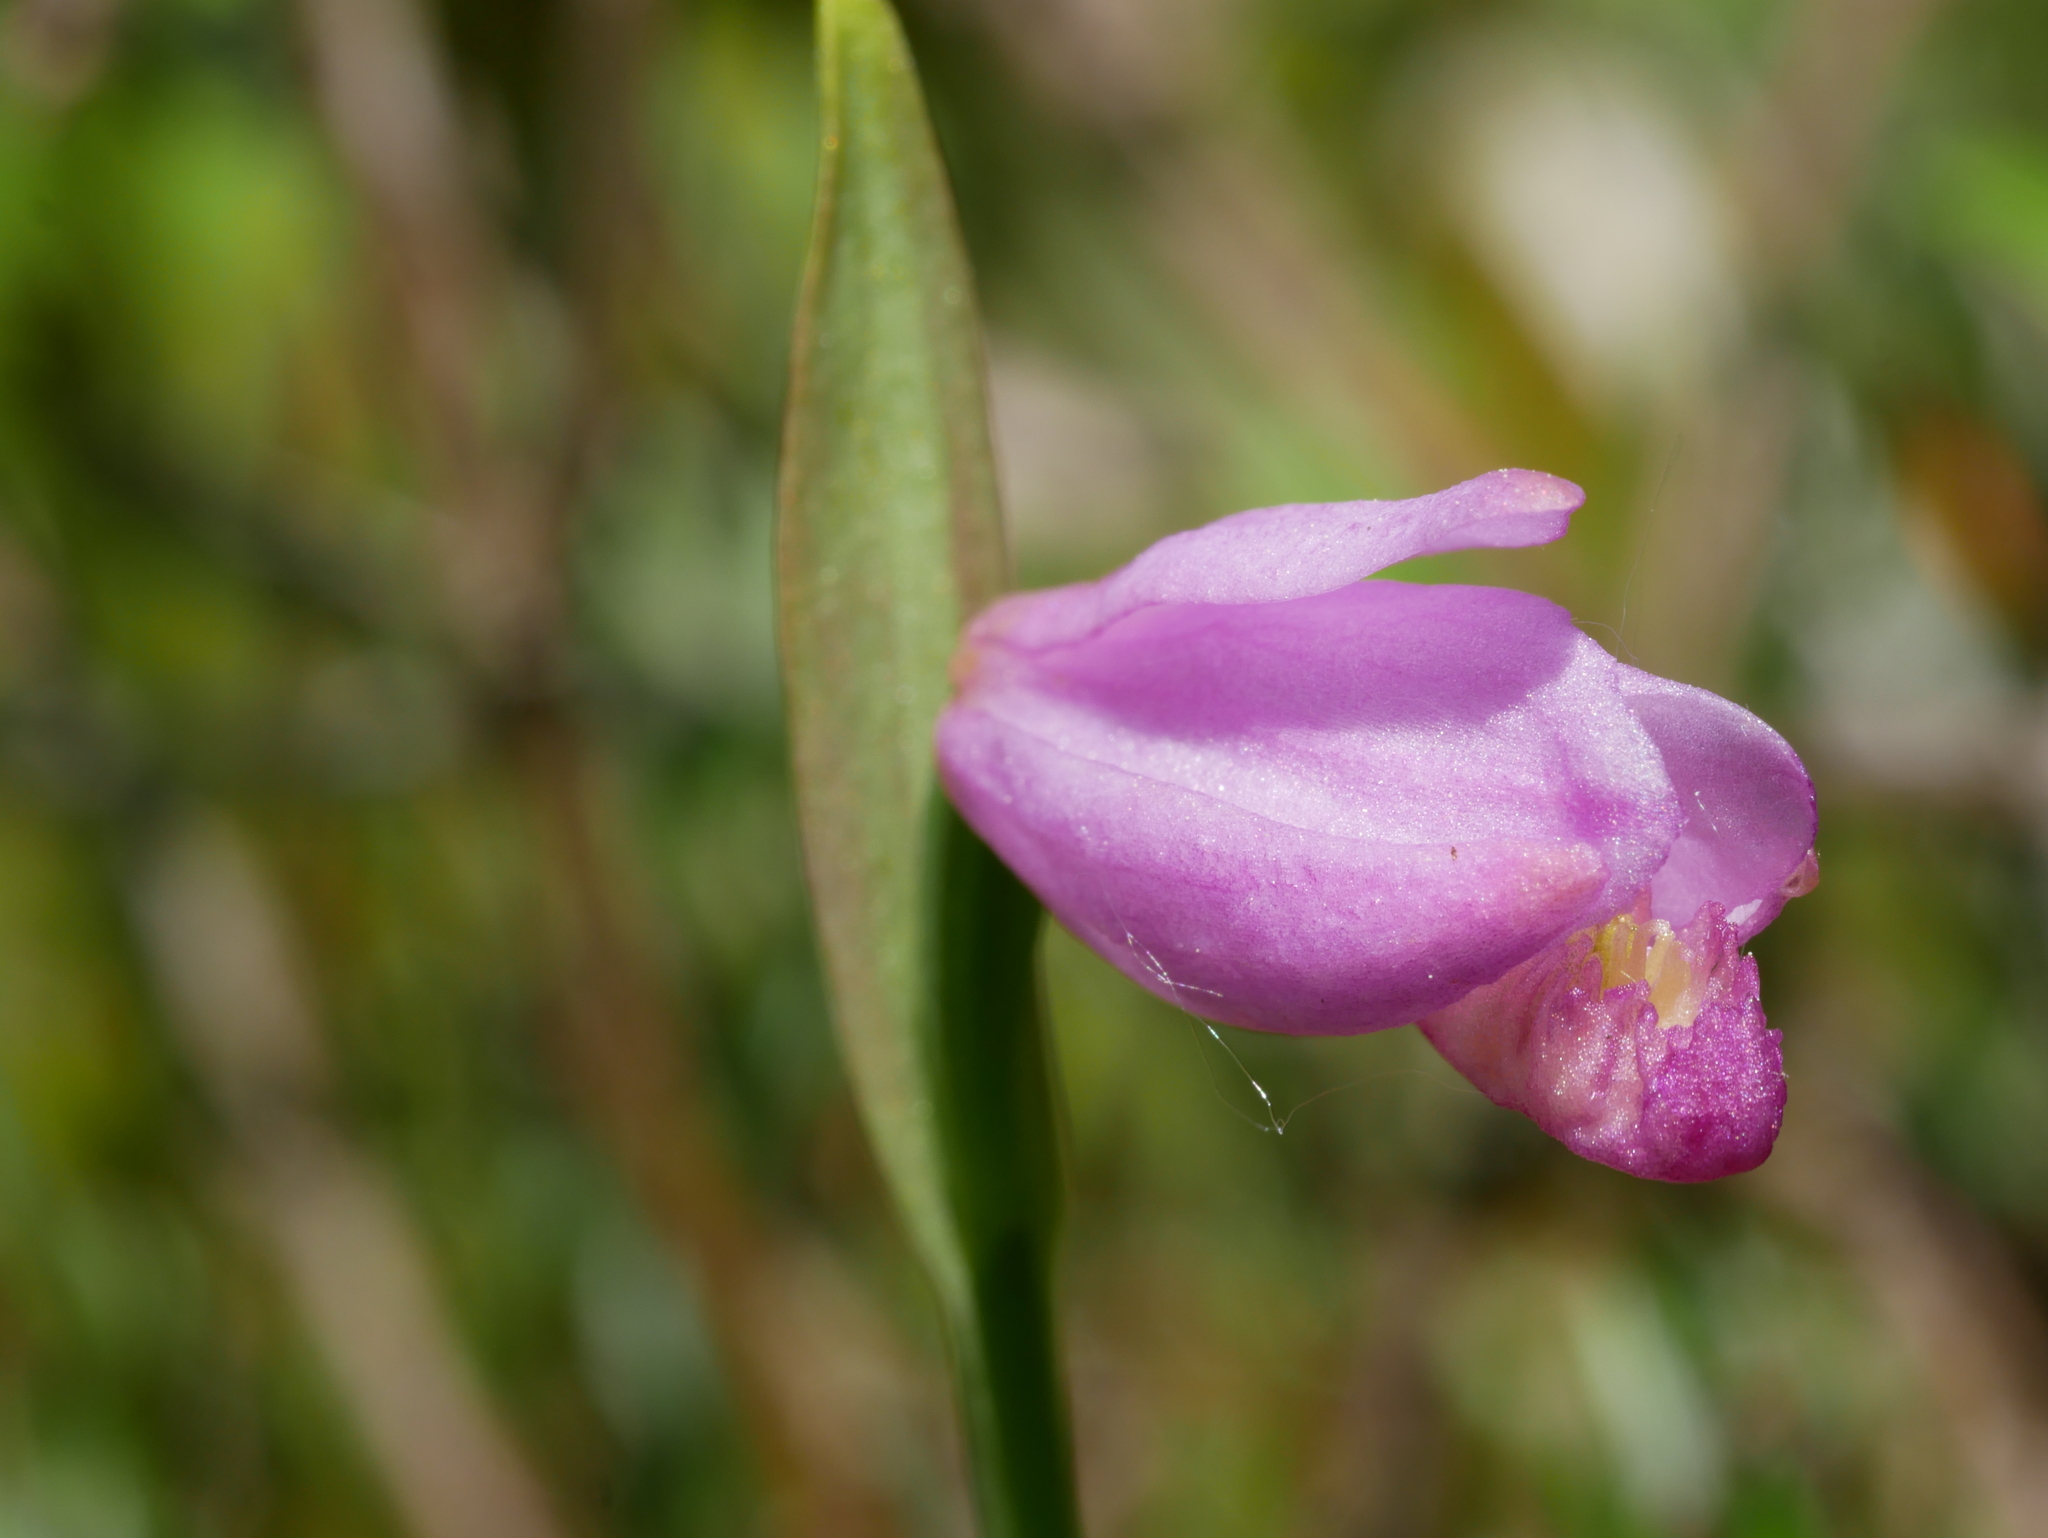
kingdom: Plantae
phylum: Tracheophyta
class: Liliopsida
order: Asparagales
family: Orchidaceae
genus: Pogonia
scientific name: Pogonia ophioglossoides
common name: Rose pogonia
